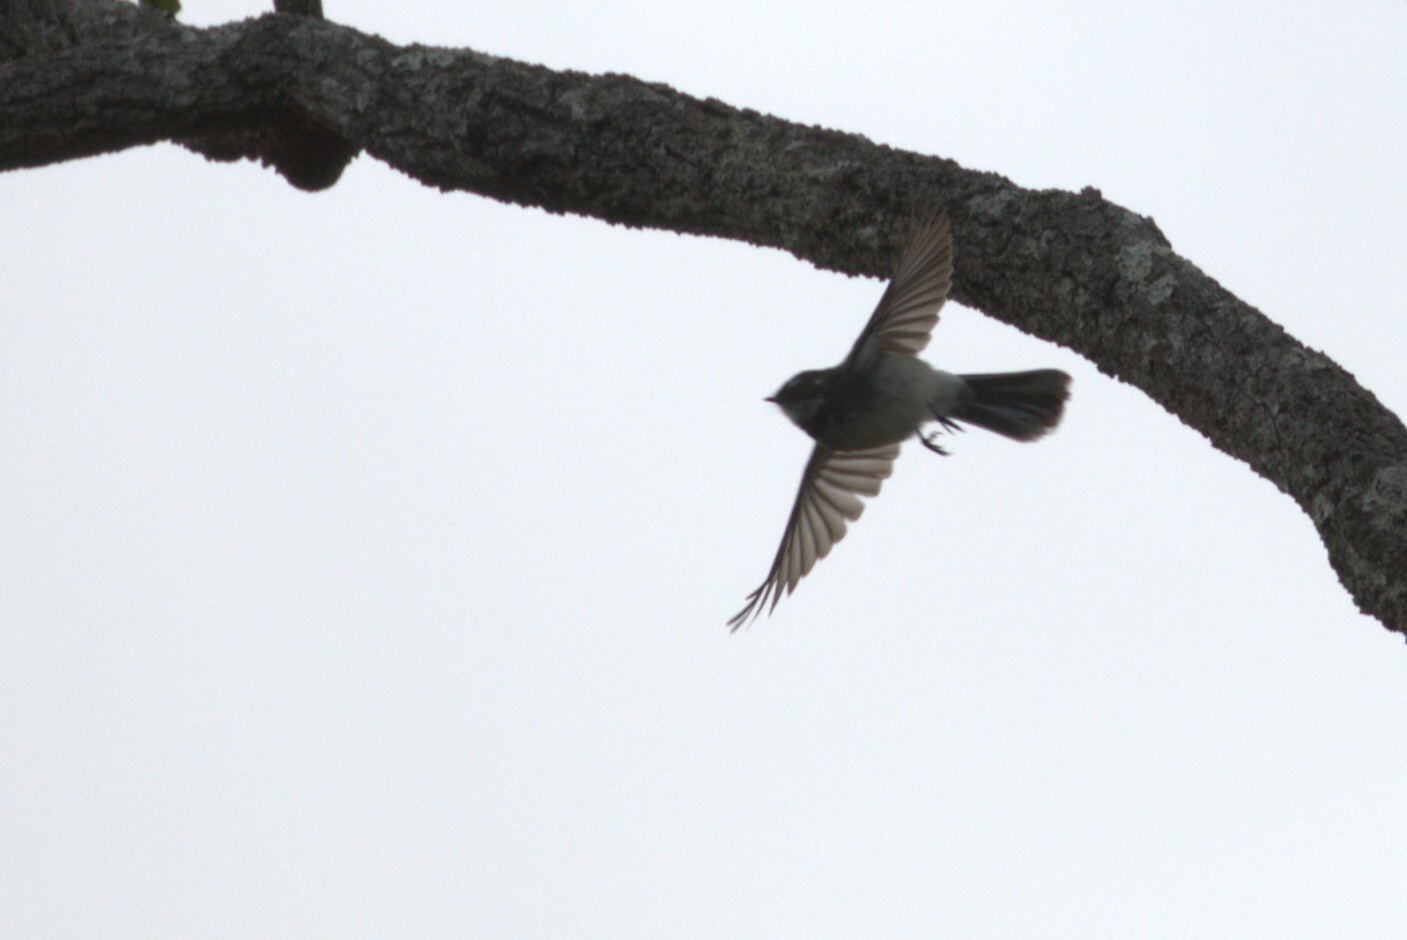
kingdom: Animalia
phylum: Chordata
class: Aves
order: Passeriformes
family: Rhipiduridae
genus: Rhipidura
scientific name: Rhipidura albiscapa
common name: Grey fantail
